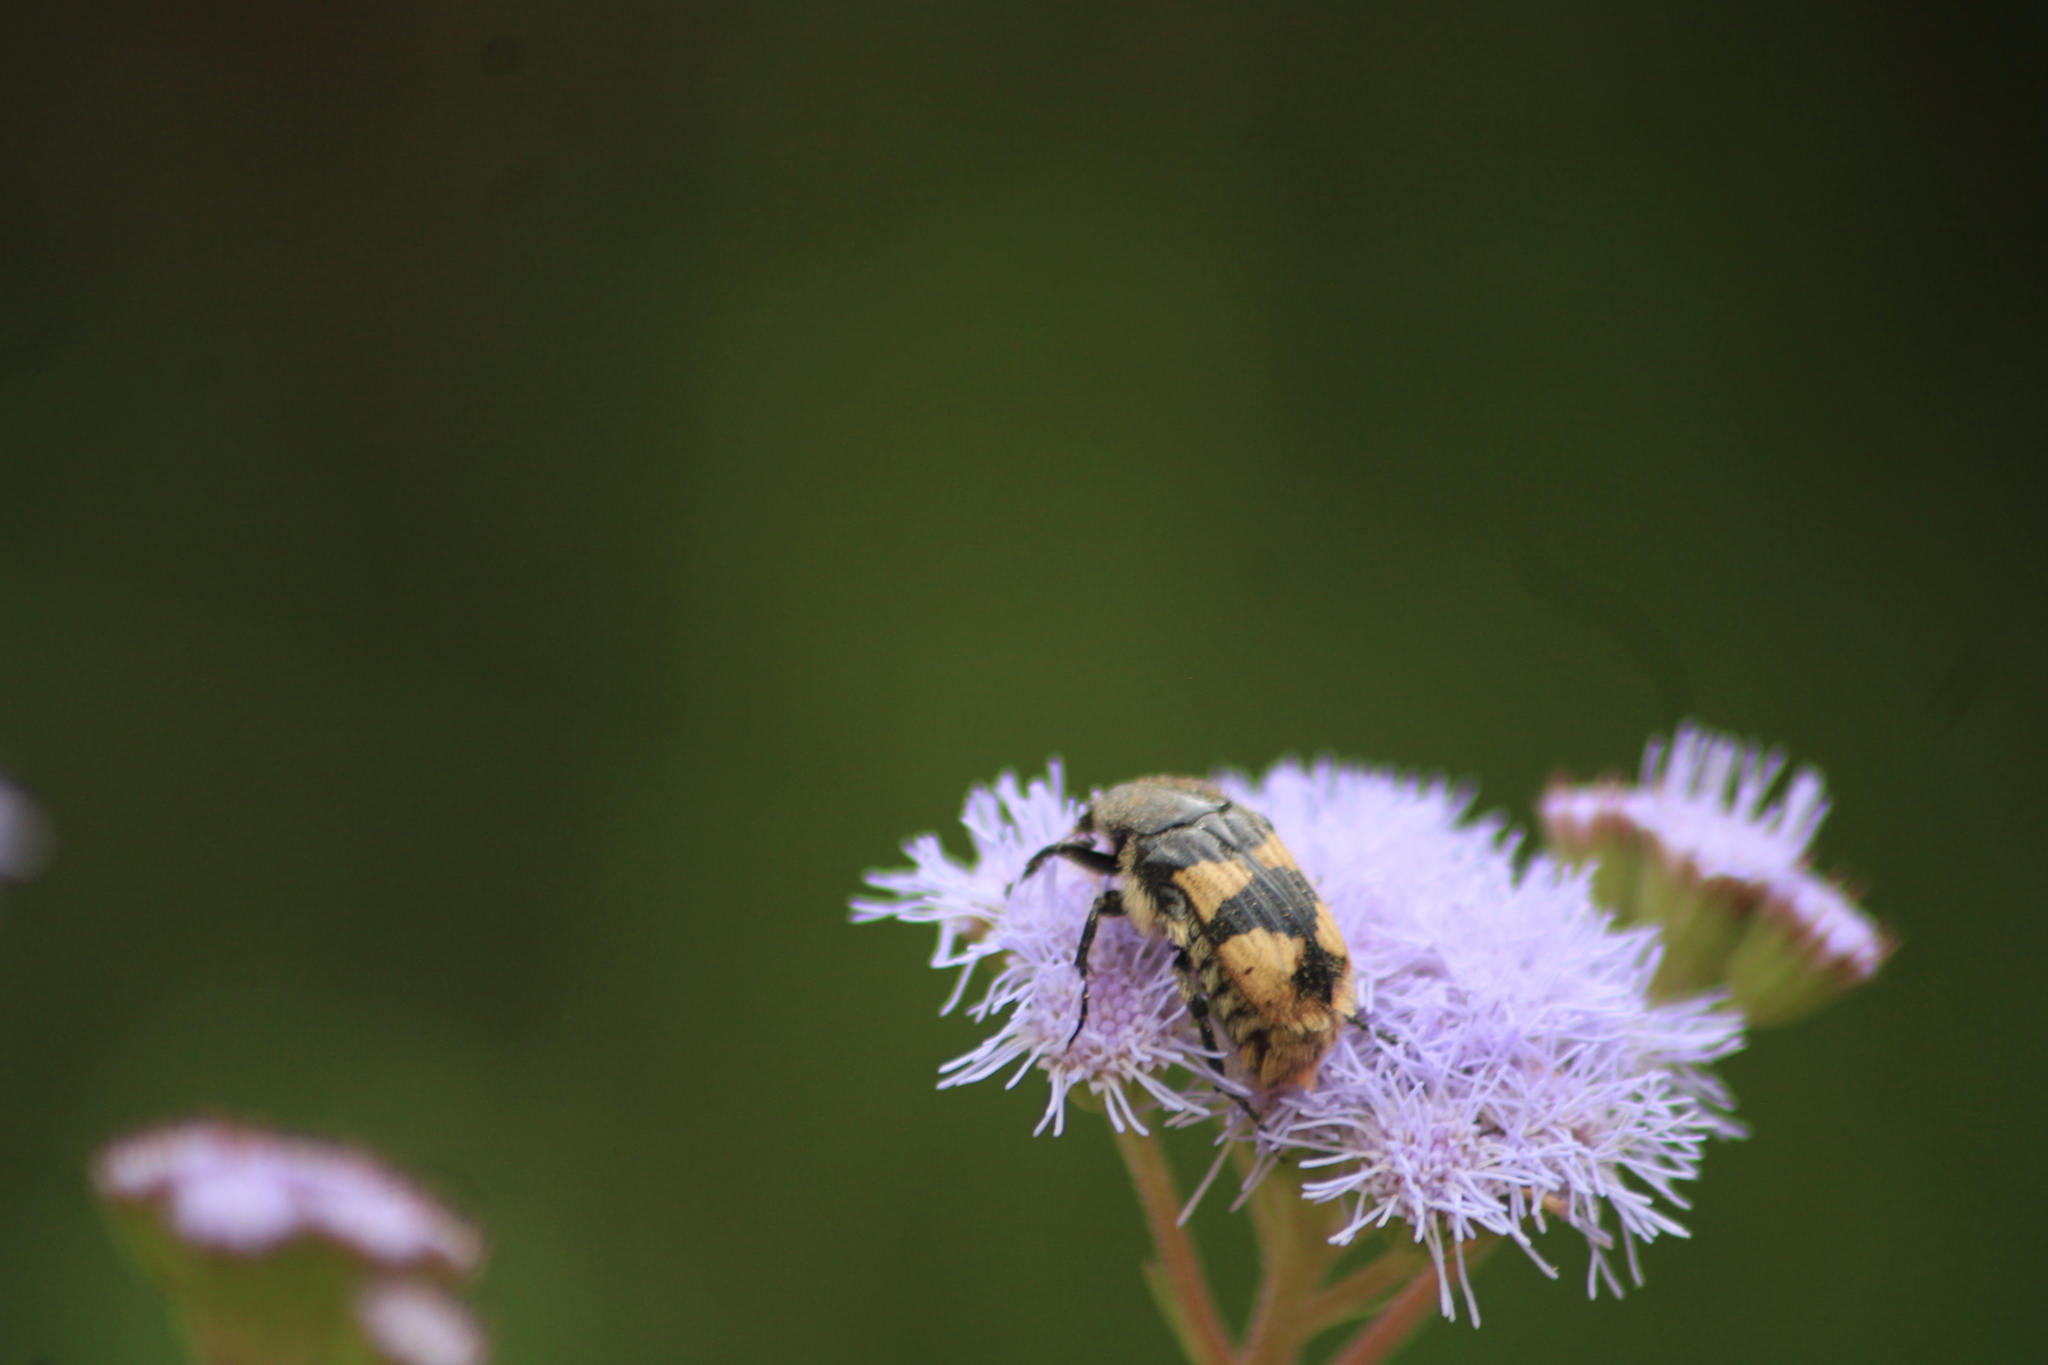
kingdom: Animalia
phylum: Arthropoda
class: Insecta
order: Coleoptera
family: Scarabaeidae
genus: Euphoria
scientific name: Euphoria basalis
